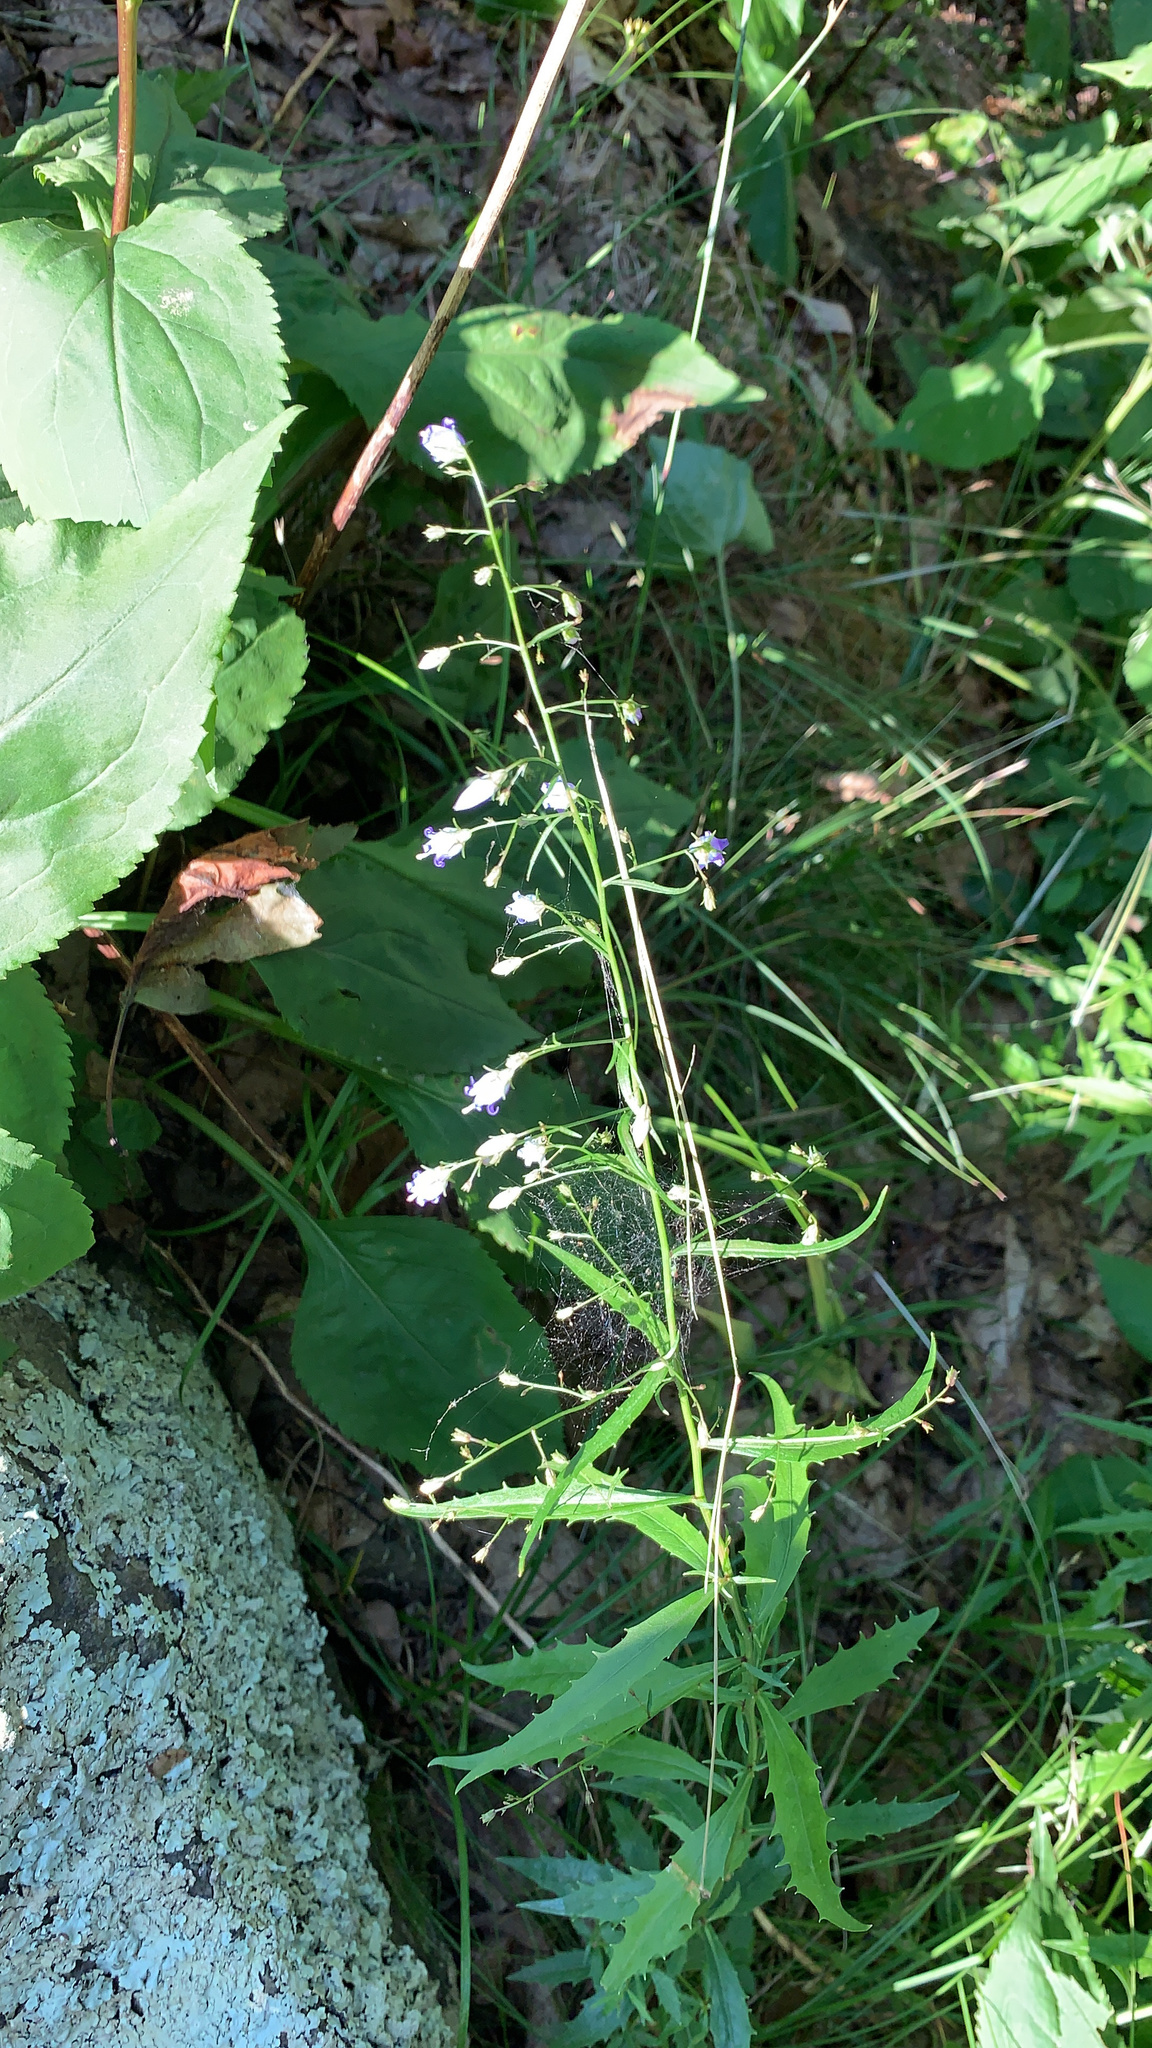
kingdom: Plantae
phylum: Tracheophyta
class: Magnoliopsida
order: Asterales
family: Campanulaceae
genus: Campanula
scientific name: Campanula divaricata
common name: Appalachian bellflower
